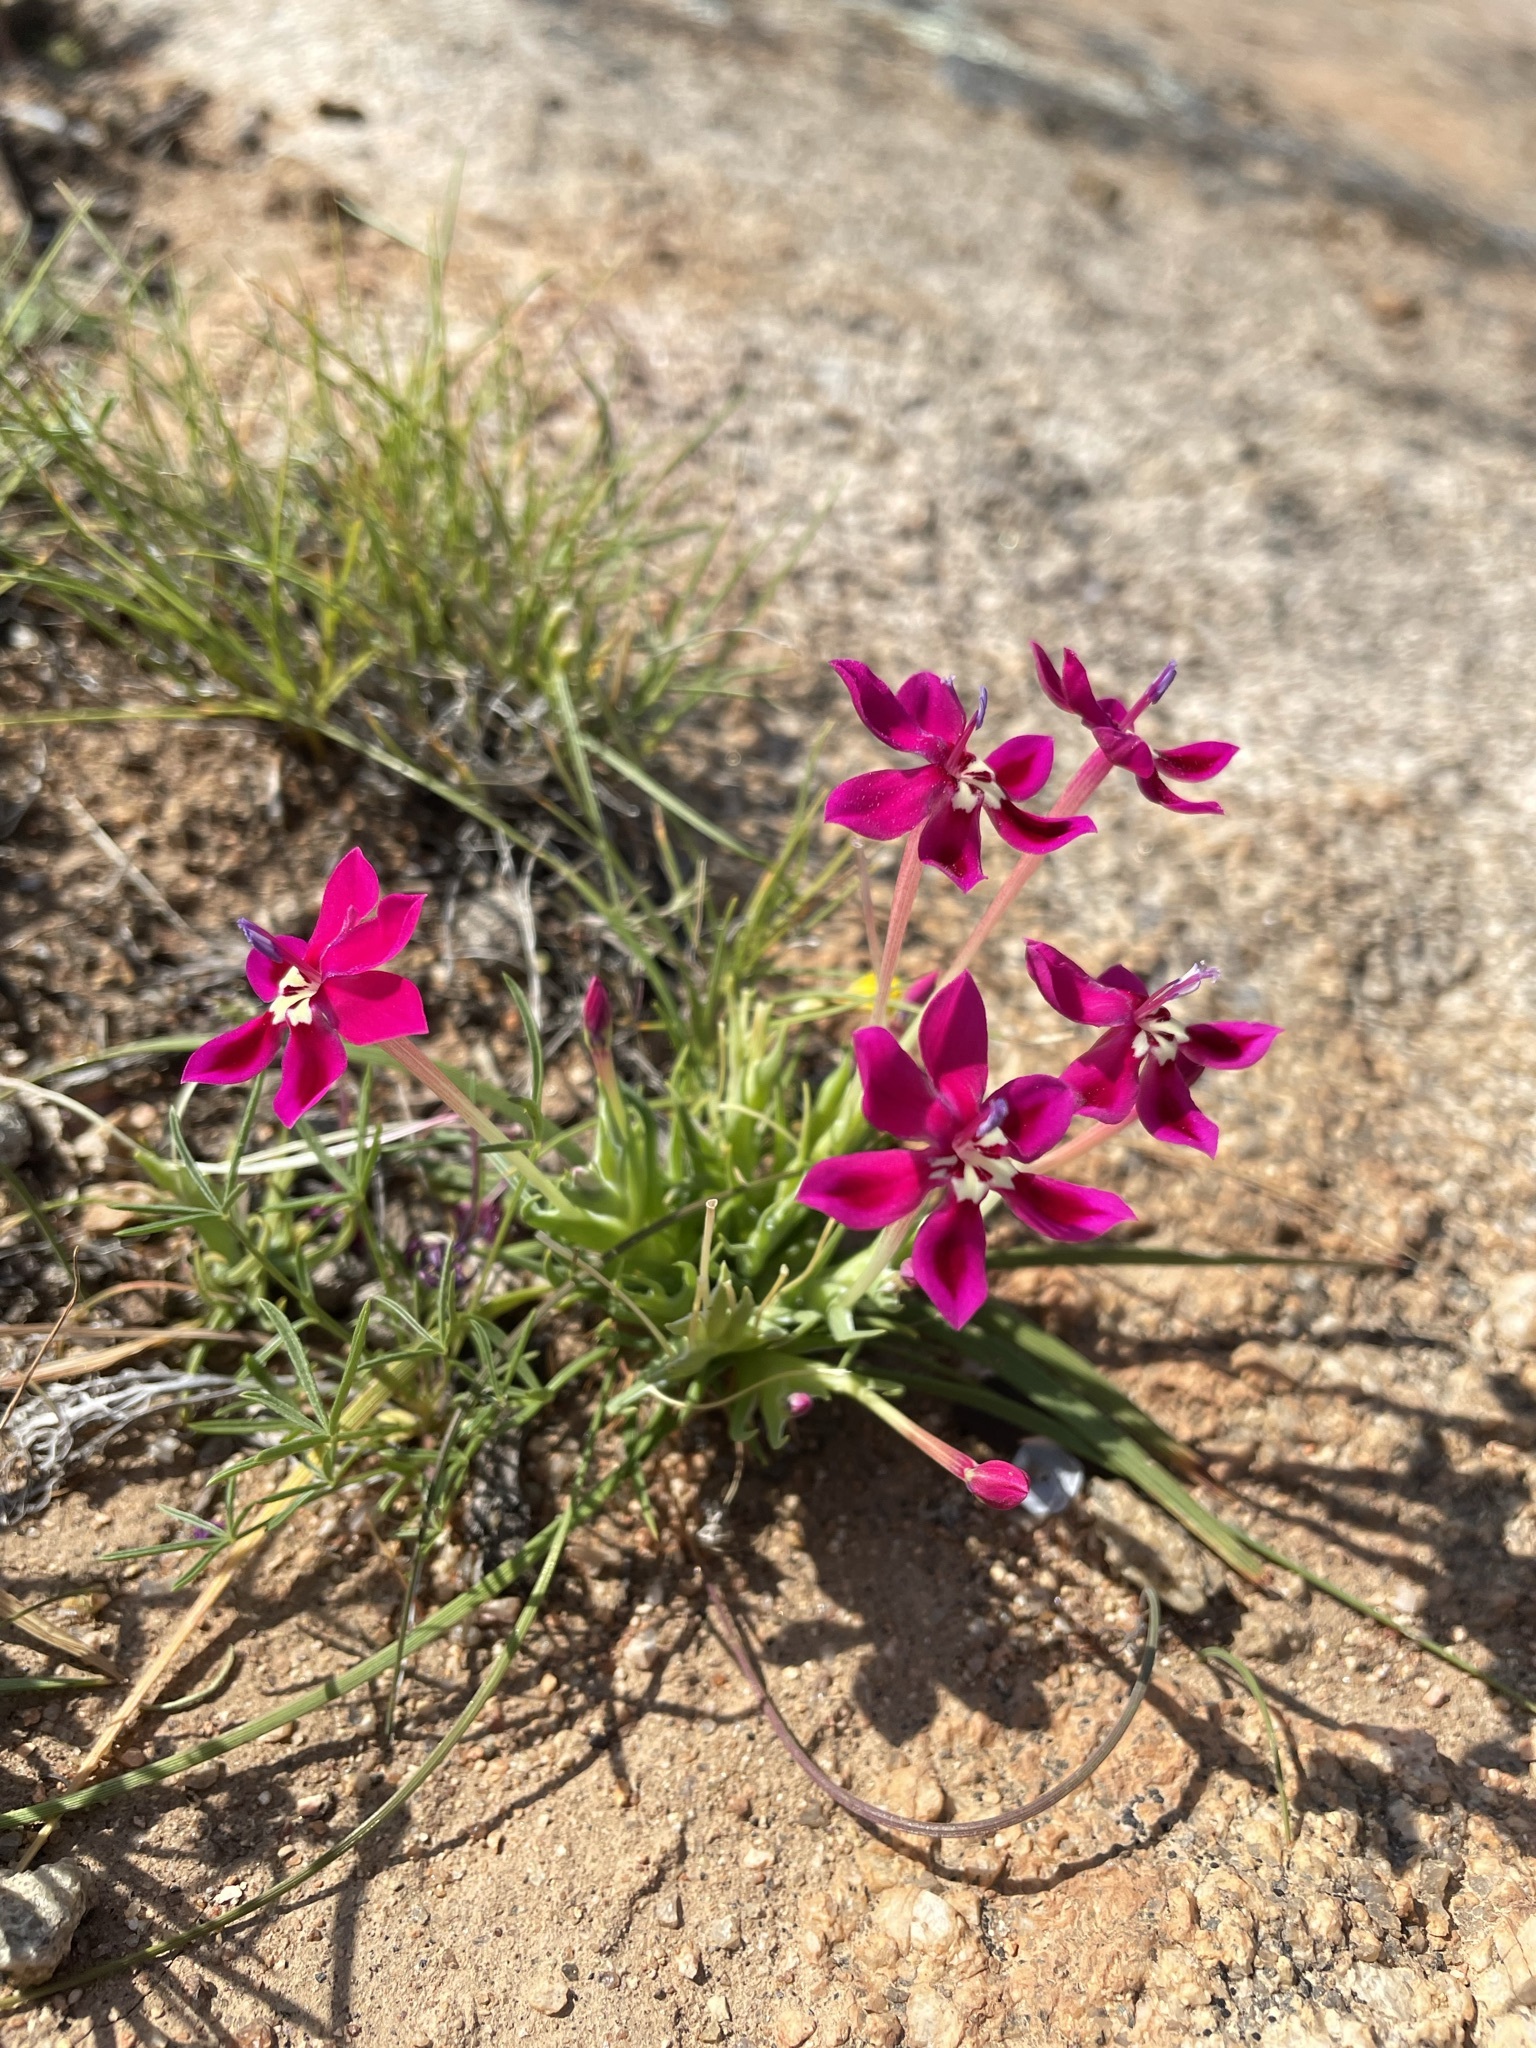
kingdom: Plantae
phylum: Tracheophyta
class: Liliopsida
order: Asparagales
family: Iridaceae
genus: Lapeirousia
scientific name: Lapeirousia silenoides
